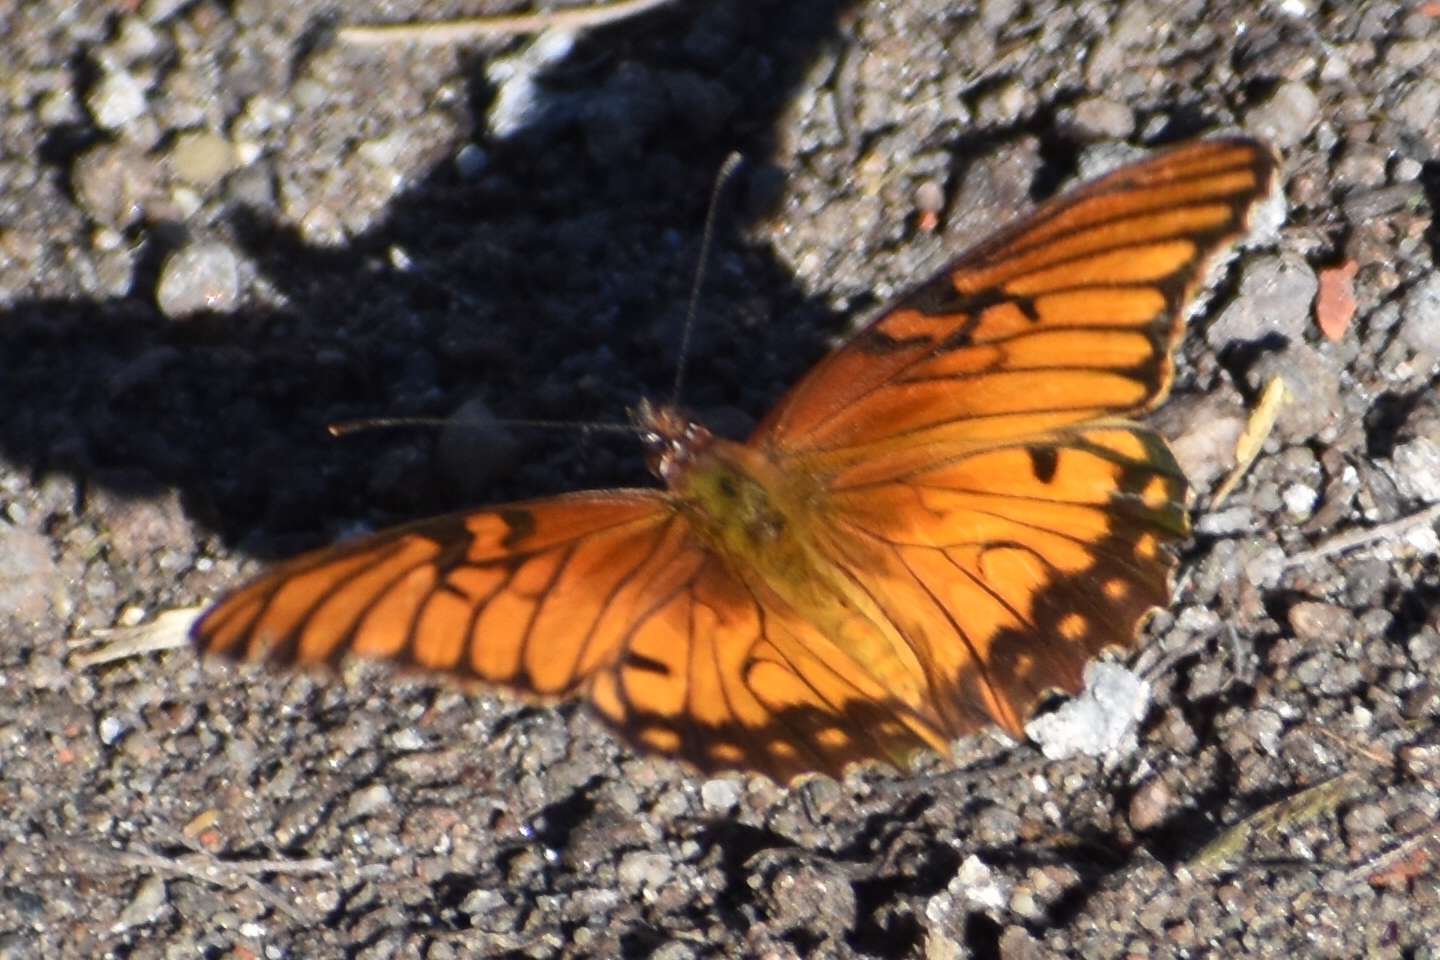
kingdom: Animalia
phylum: Arthropoda
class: Insecta
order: Lepidoptera
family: Nymphalidae
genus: Dione
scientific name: Dione moneta
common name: Mexican silverspot
